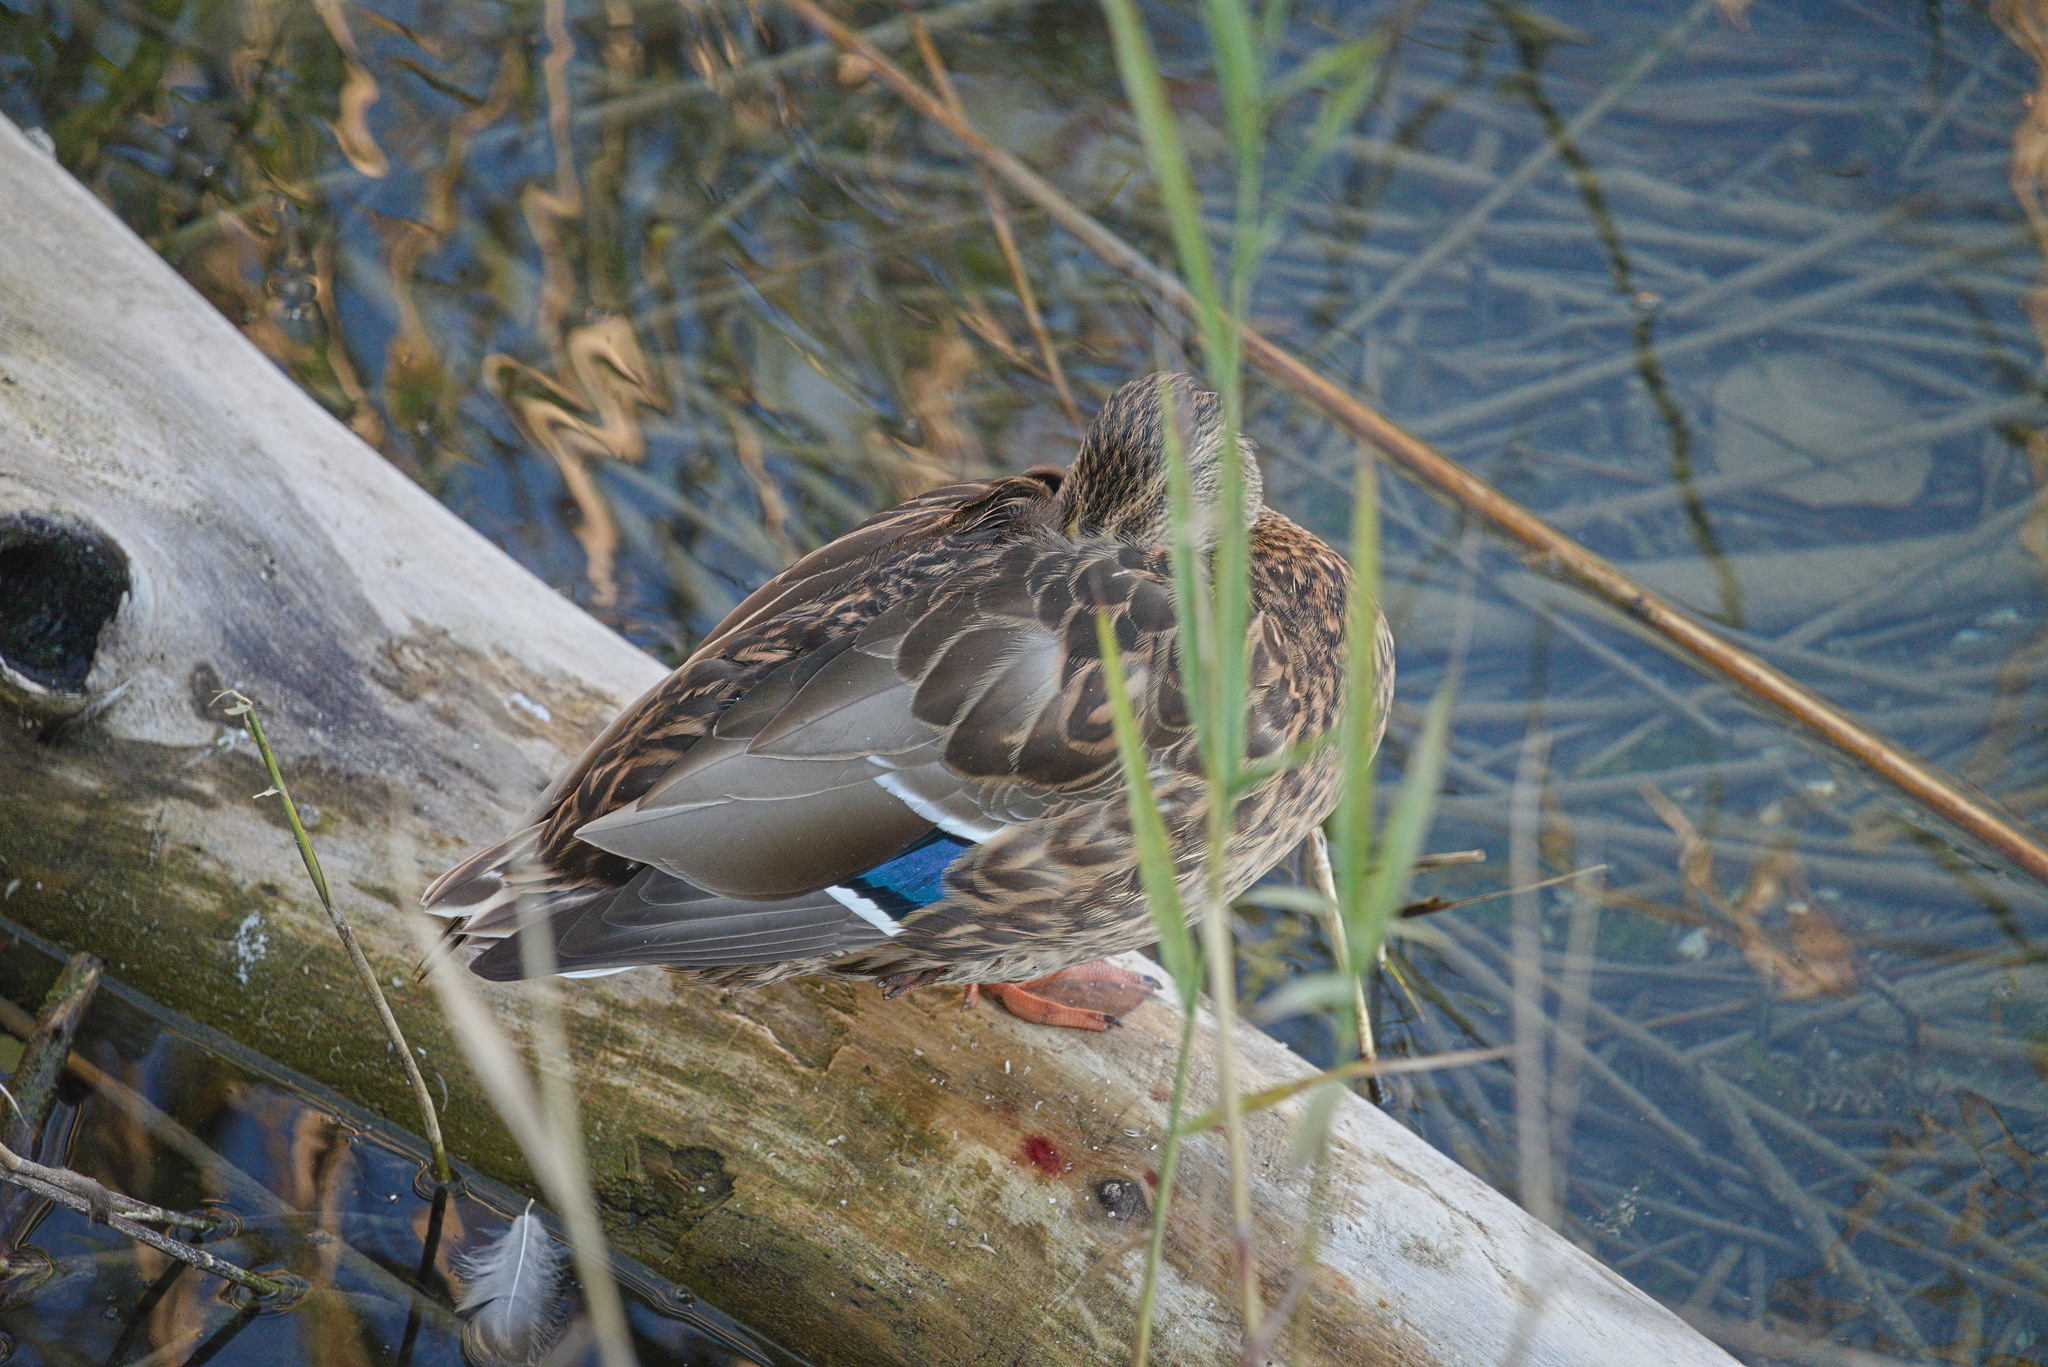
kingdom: Animalia
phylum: Chordata
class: Aves
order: Anseriformes
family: Anatidae
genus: Anas
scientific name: Anas platyrhynchos
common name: Mallard
